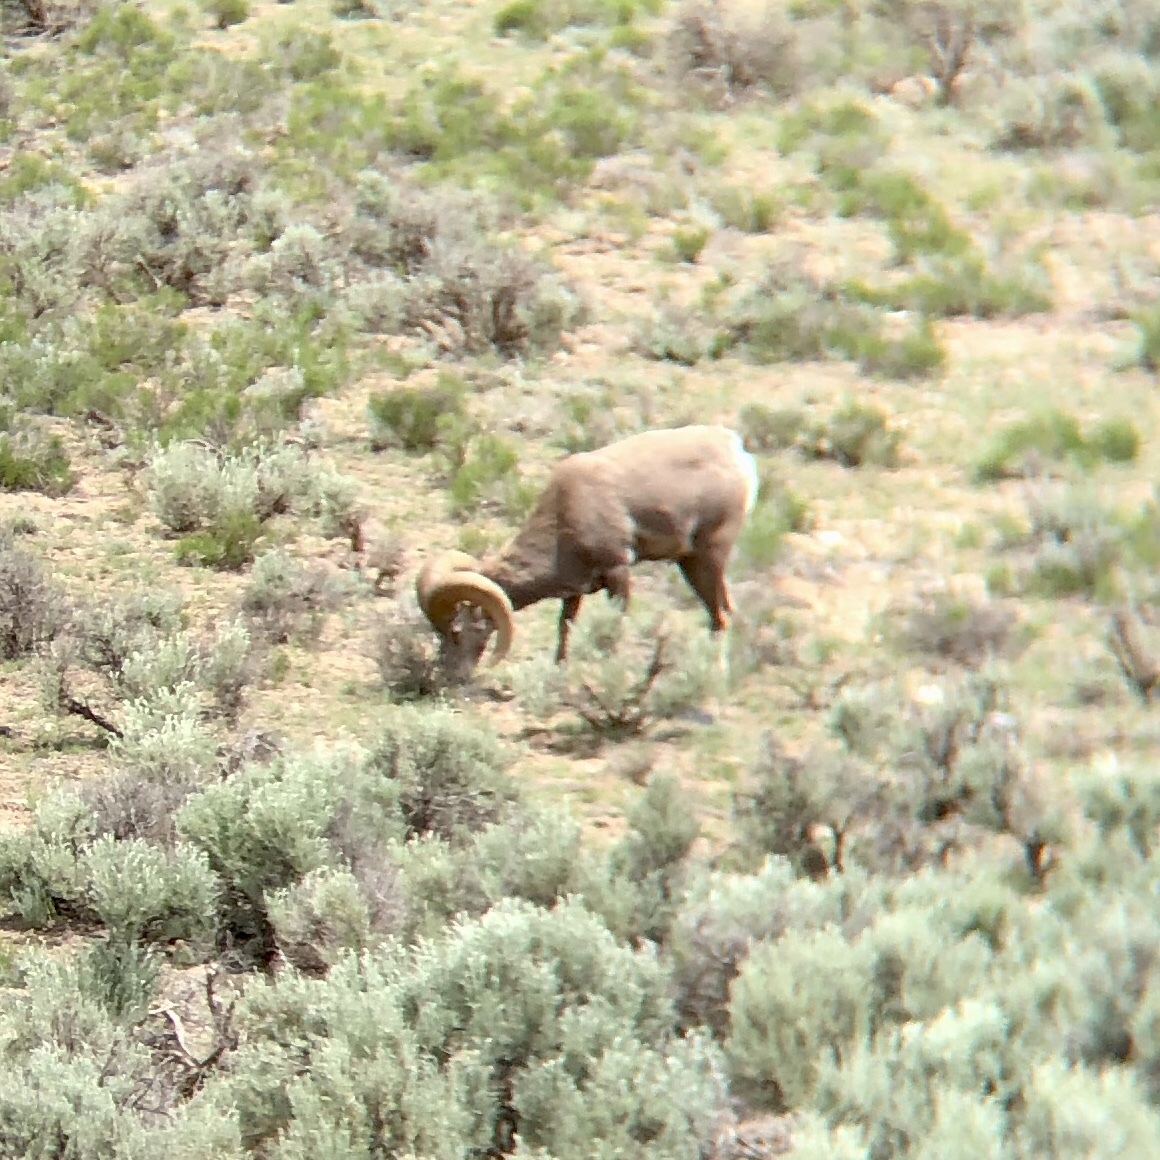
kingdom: Animalia
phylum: Chordata
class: Mammalia
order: Artiodactyla
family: Bovidae
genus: Ovis
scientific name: Ovis canadensis
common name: Bighorn sheep
